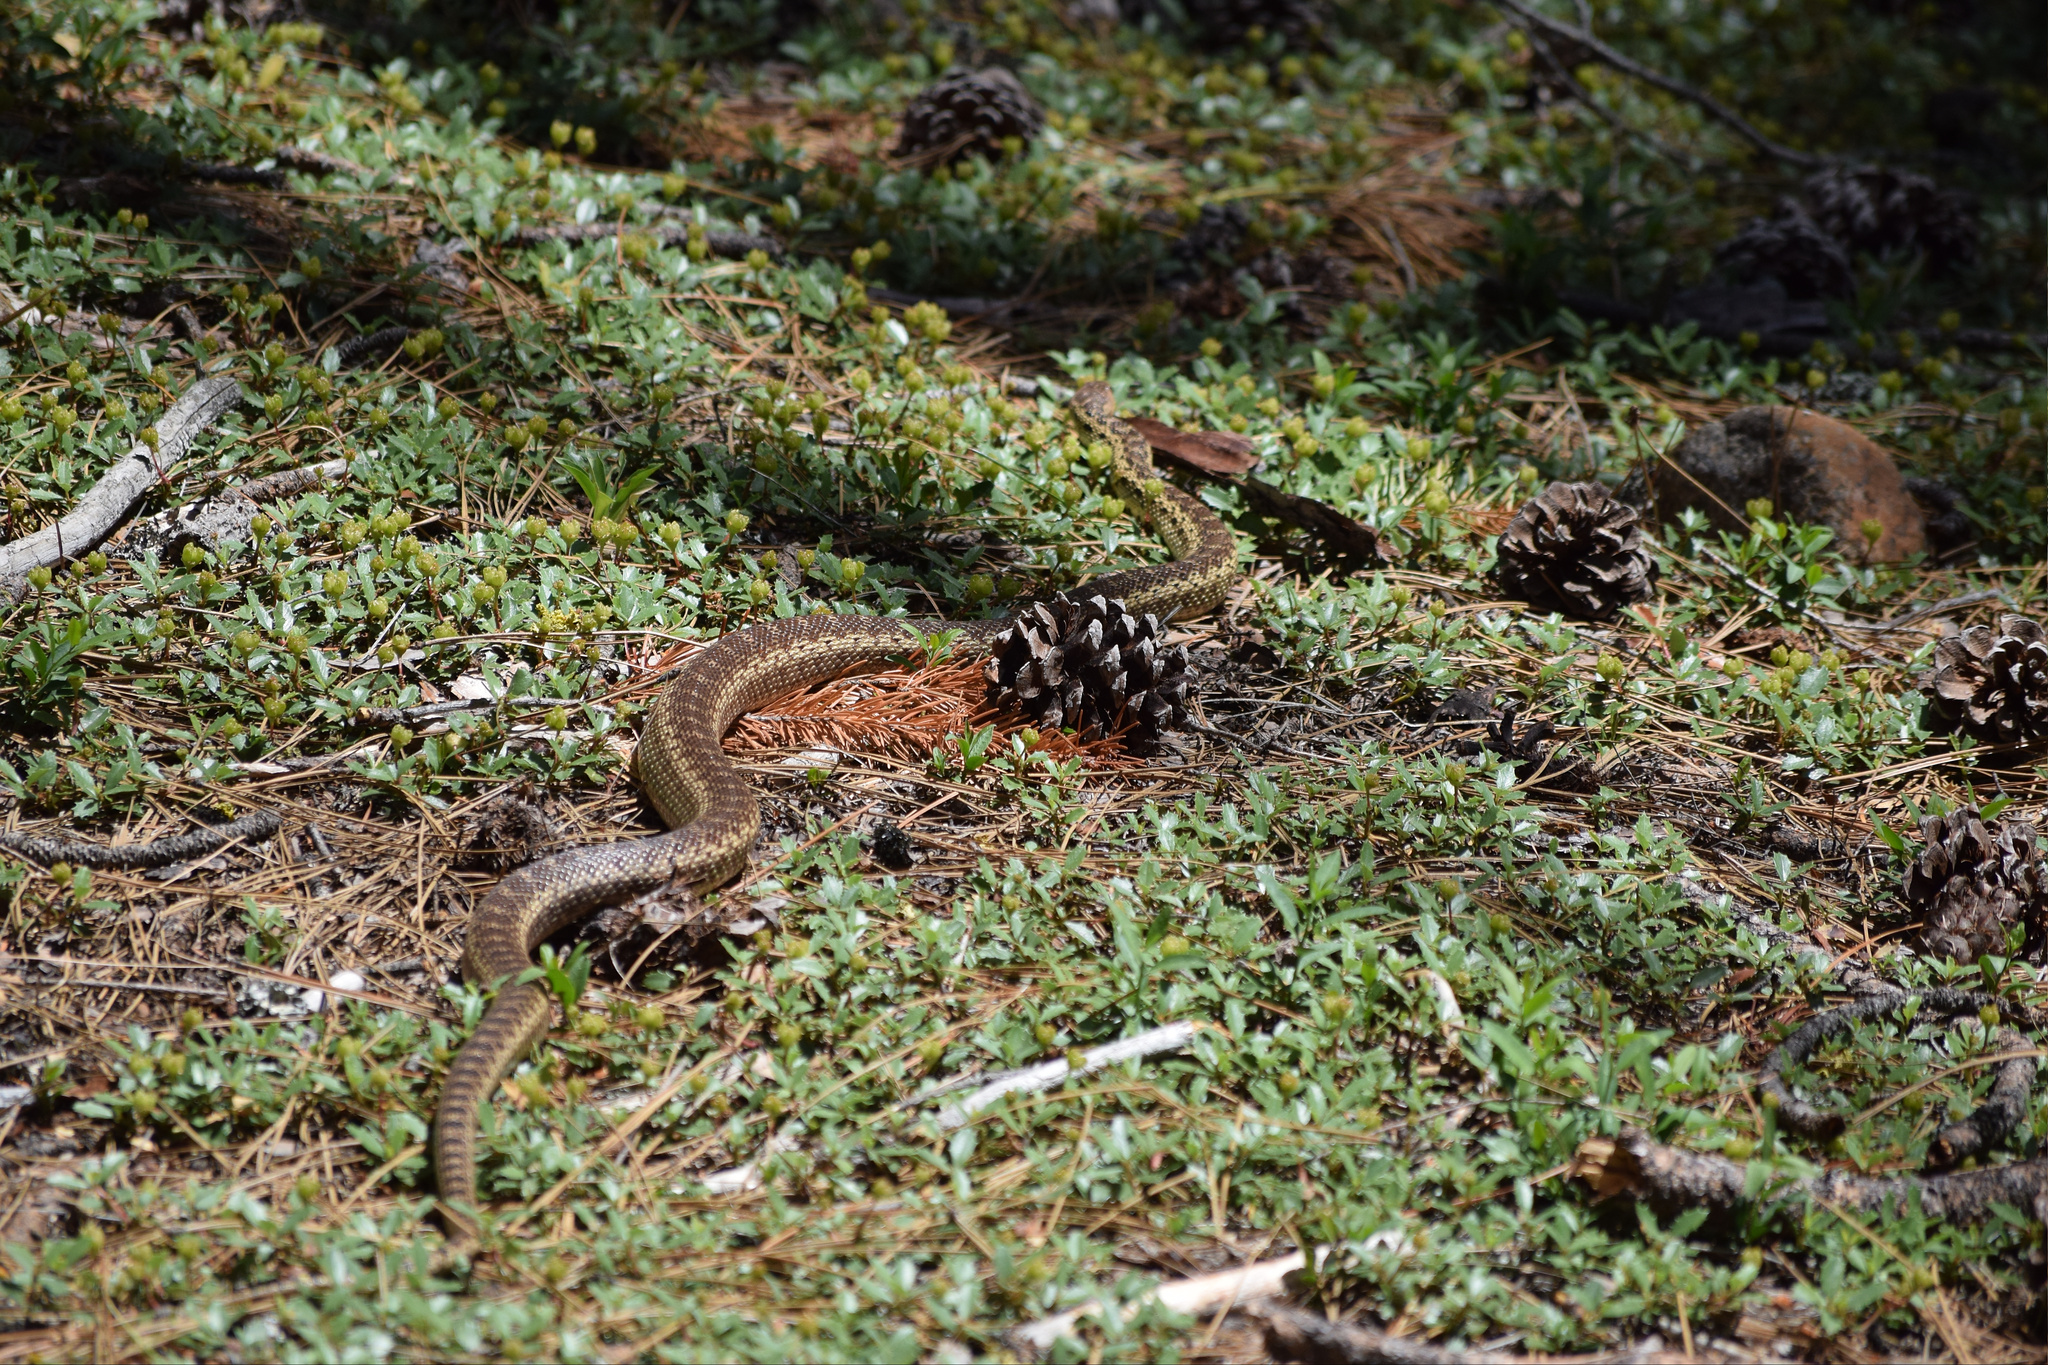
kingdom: Animalia
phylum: Chordata
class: Squamata
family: Colubridae
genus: Pituophis
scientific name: Pituophis catenifer
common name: Gopher snake
